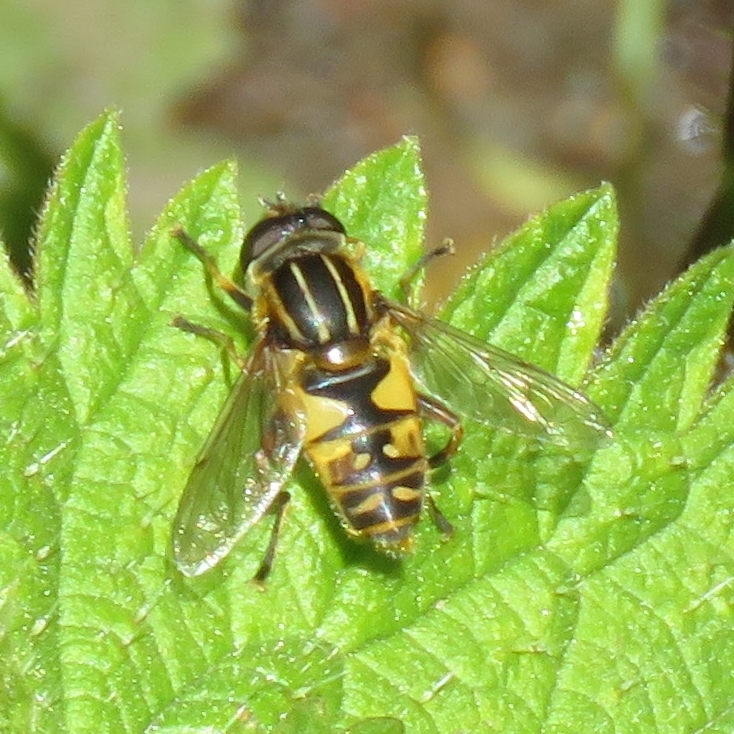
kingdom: Animalia
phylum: Arthropoda
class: Insecta
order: Diptera
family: Syrphidae
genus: Helophilus
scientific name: Helophilus pendulus
